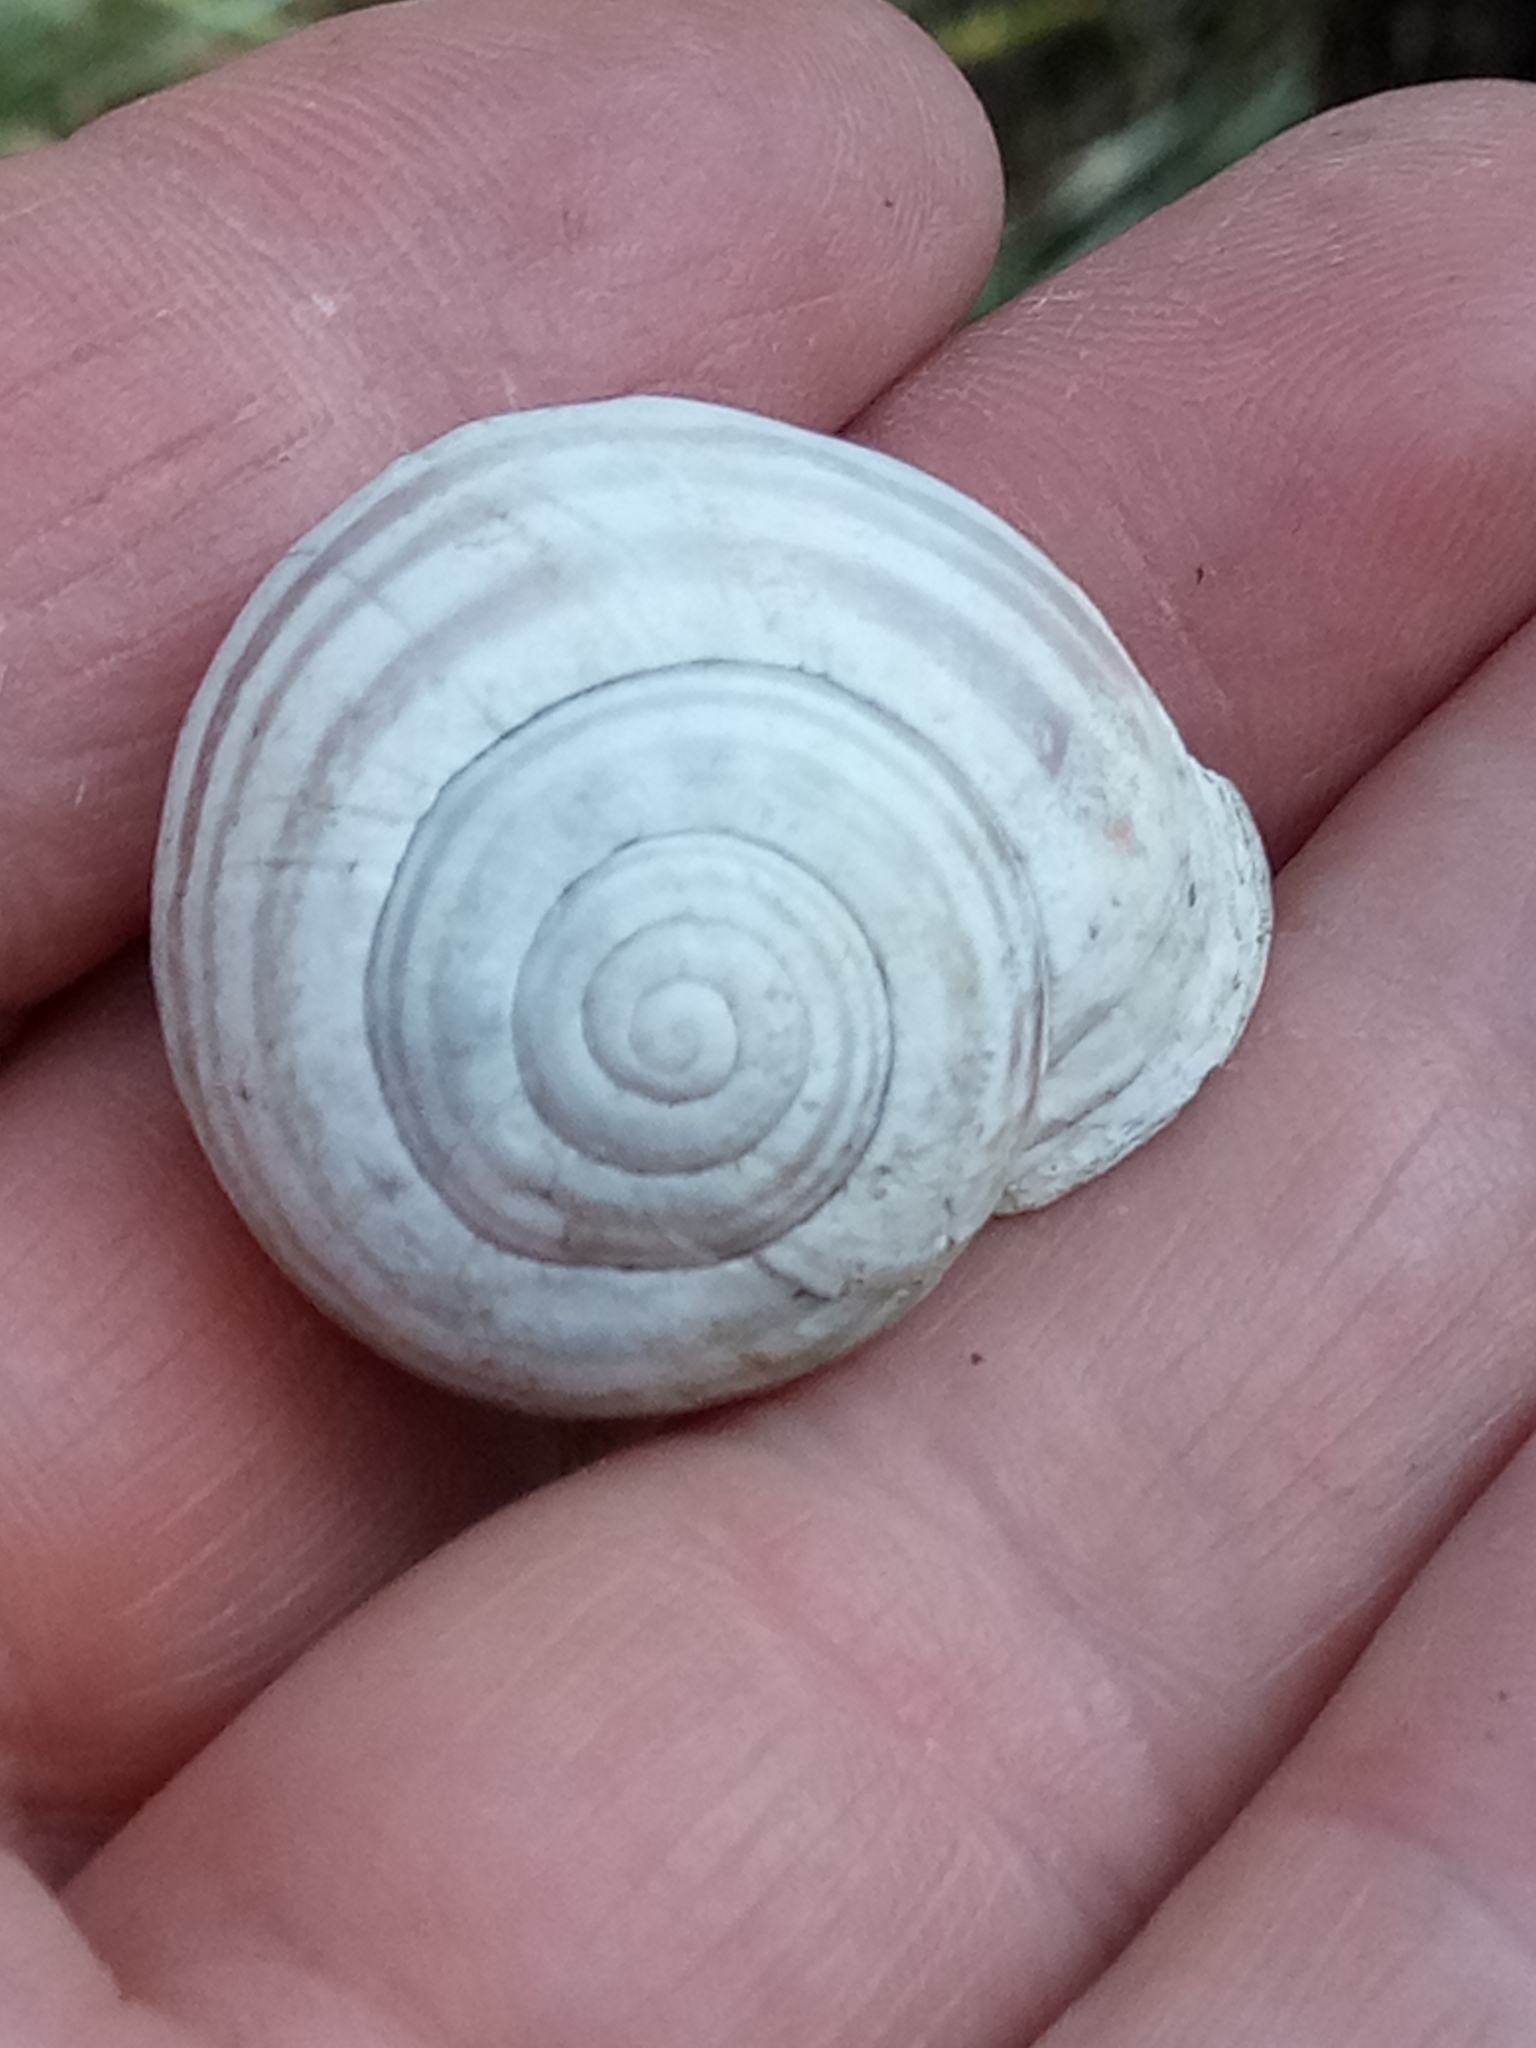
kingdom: Animalia
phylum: Mollusca
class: Gastropoda
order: Stylommatophora
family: Helicidae
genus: Eobania
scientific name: Eobania constantina
